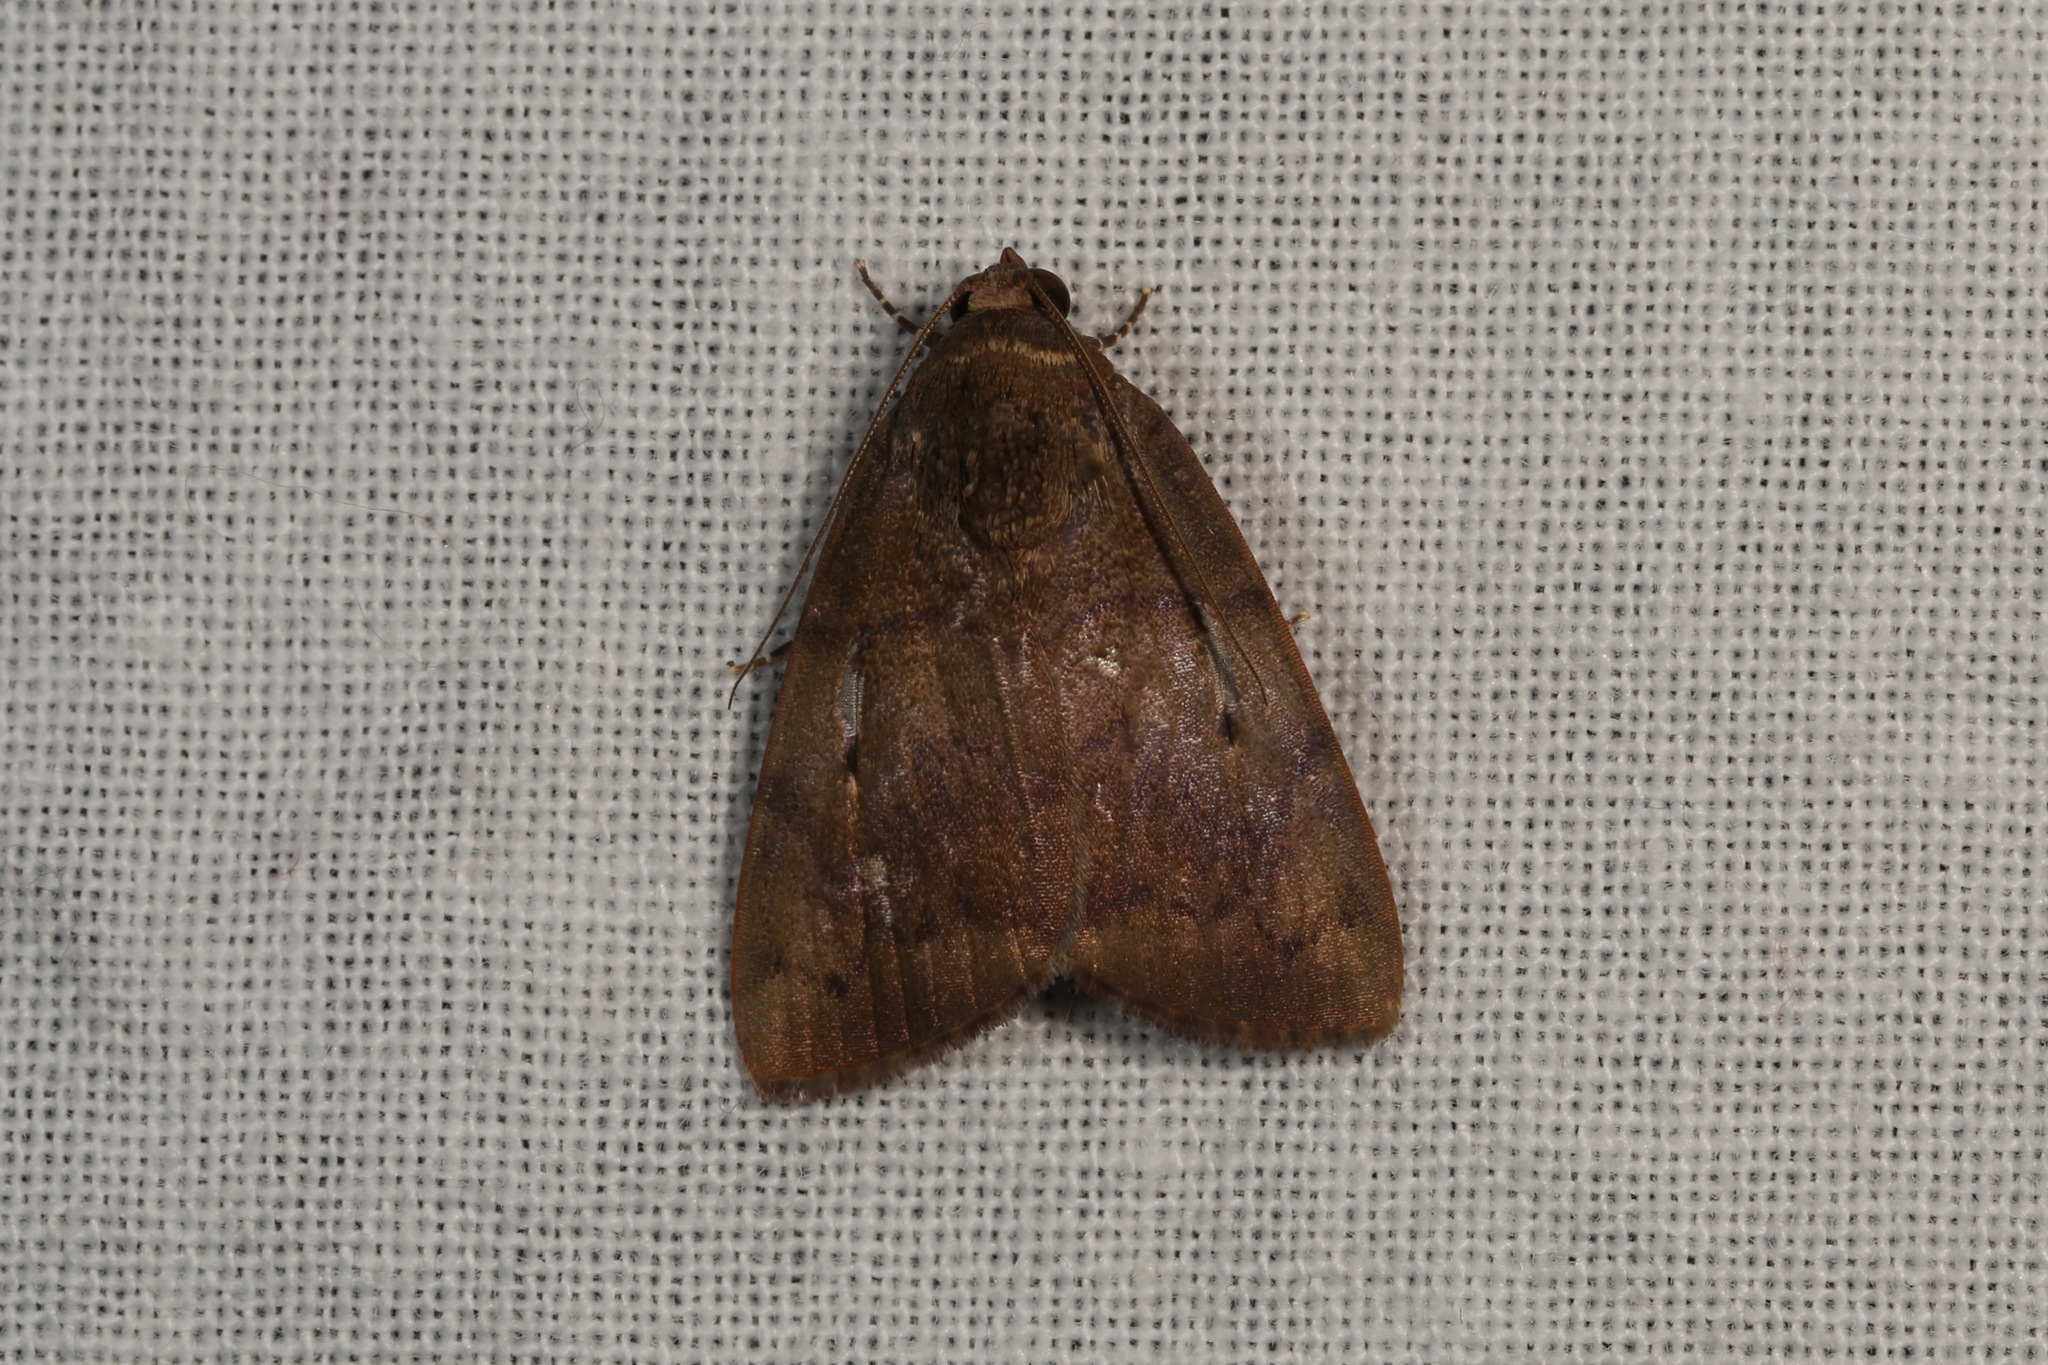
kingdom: Animalia
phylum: Arthropoda
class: Insecta
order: Lepidoptera
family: Nolidae
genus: Maceda
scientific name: Maceda mansueta
